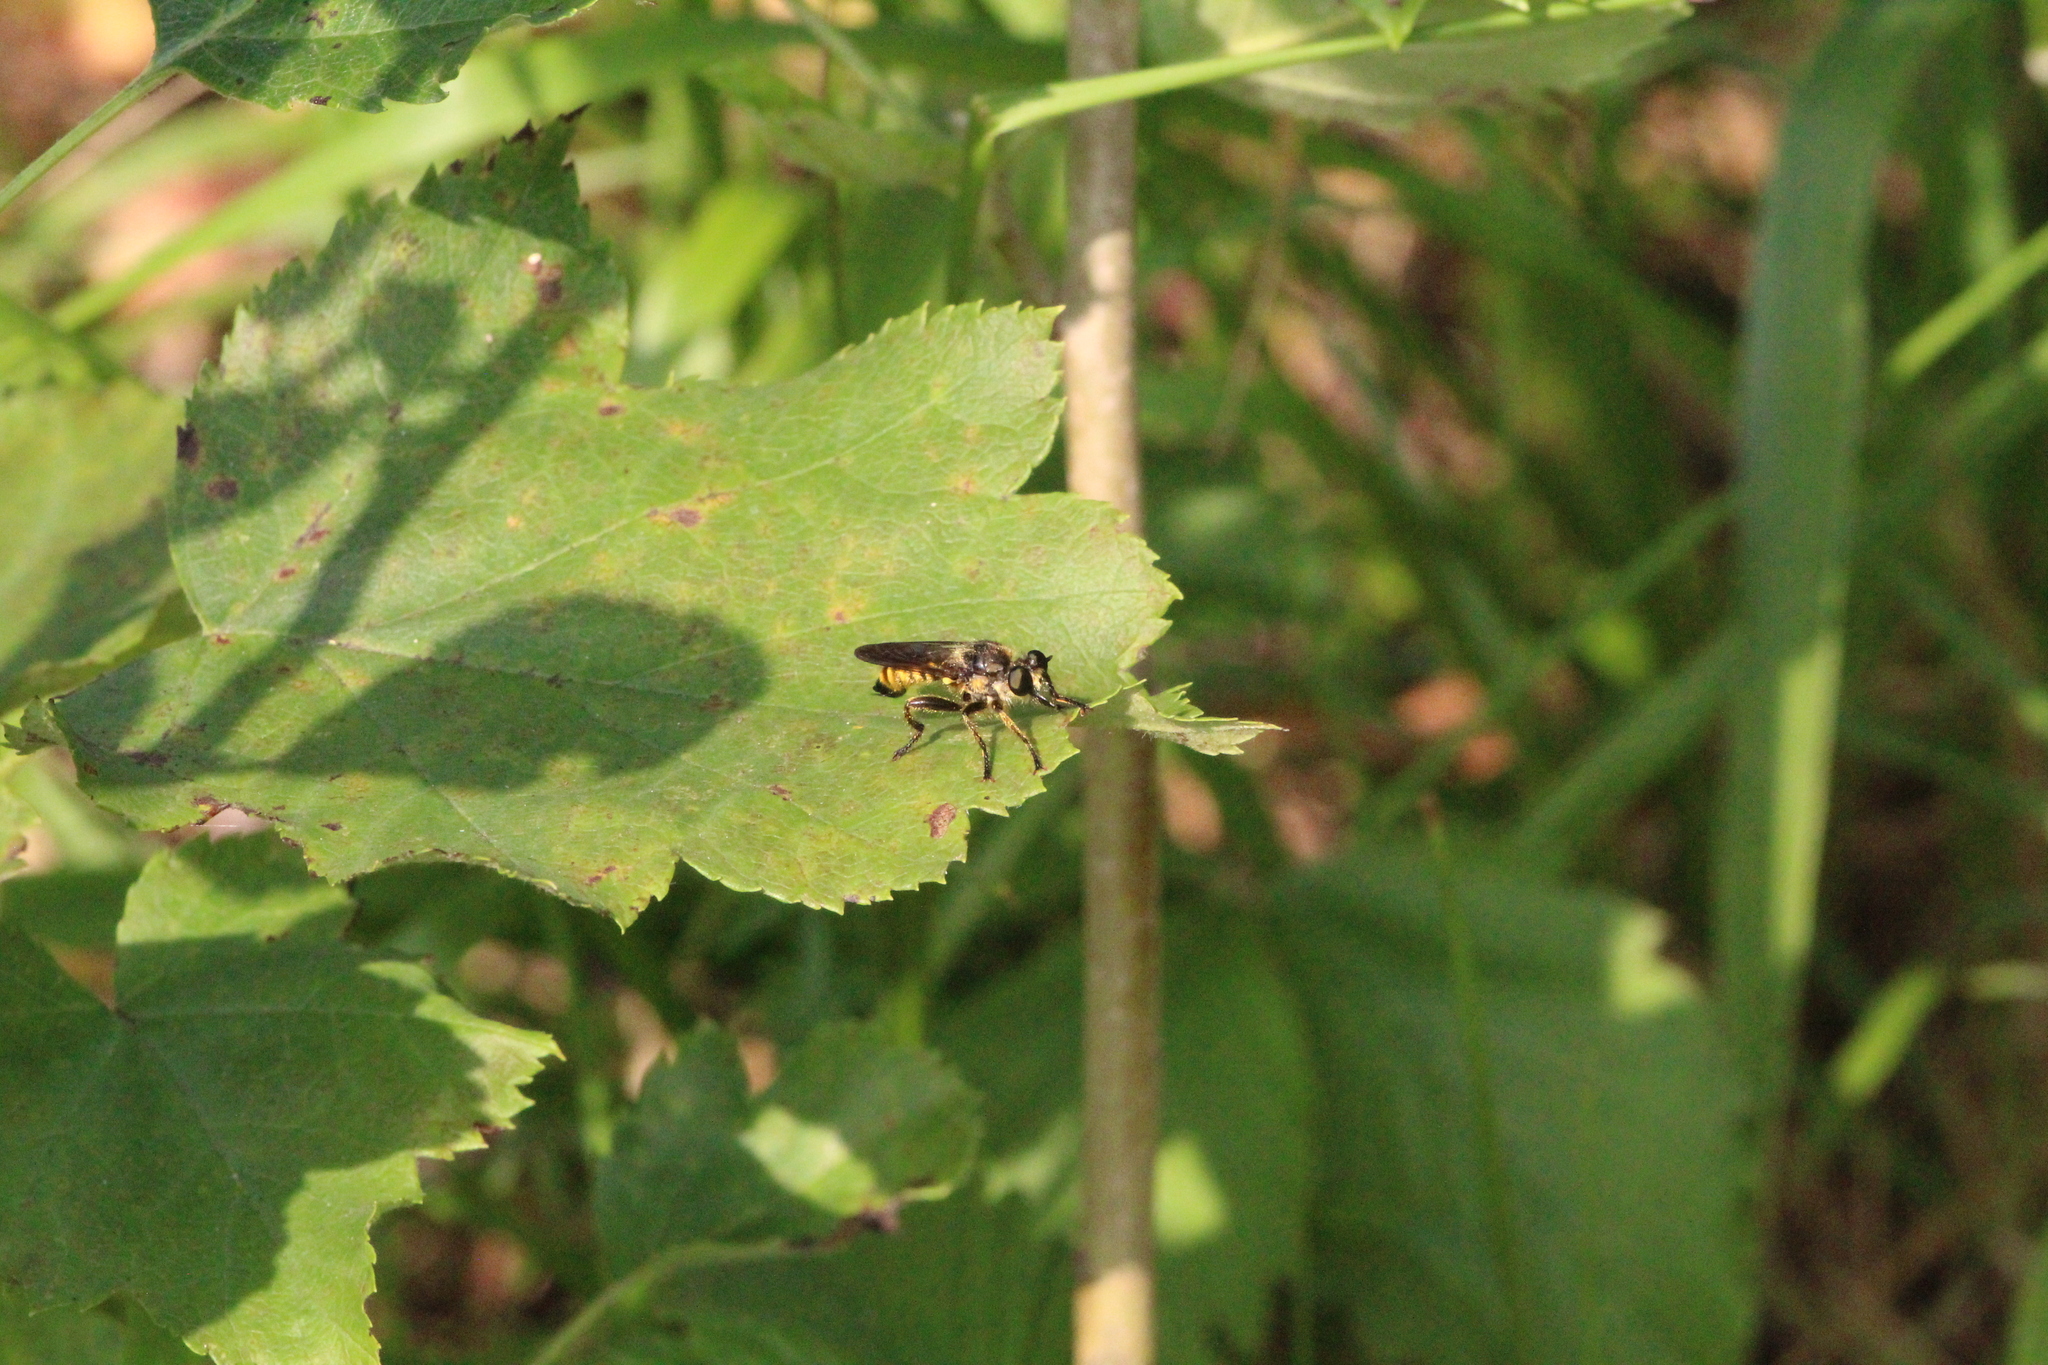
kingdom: Animalia
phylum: Arthropoda
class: Insecta
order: Diptera
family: Asilidae
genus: Lamyra
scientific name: Lamyra fimbriata
